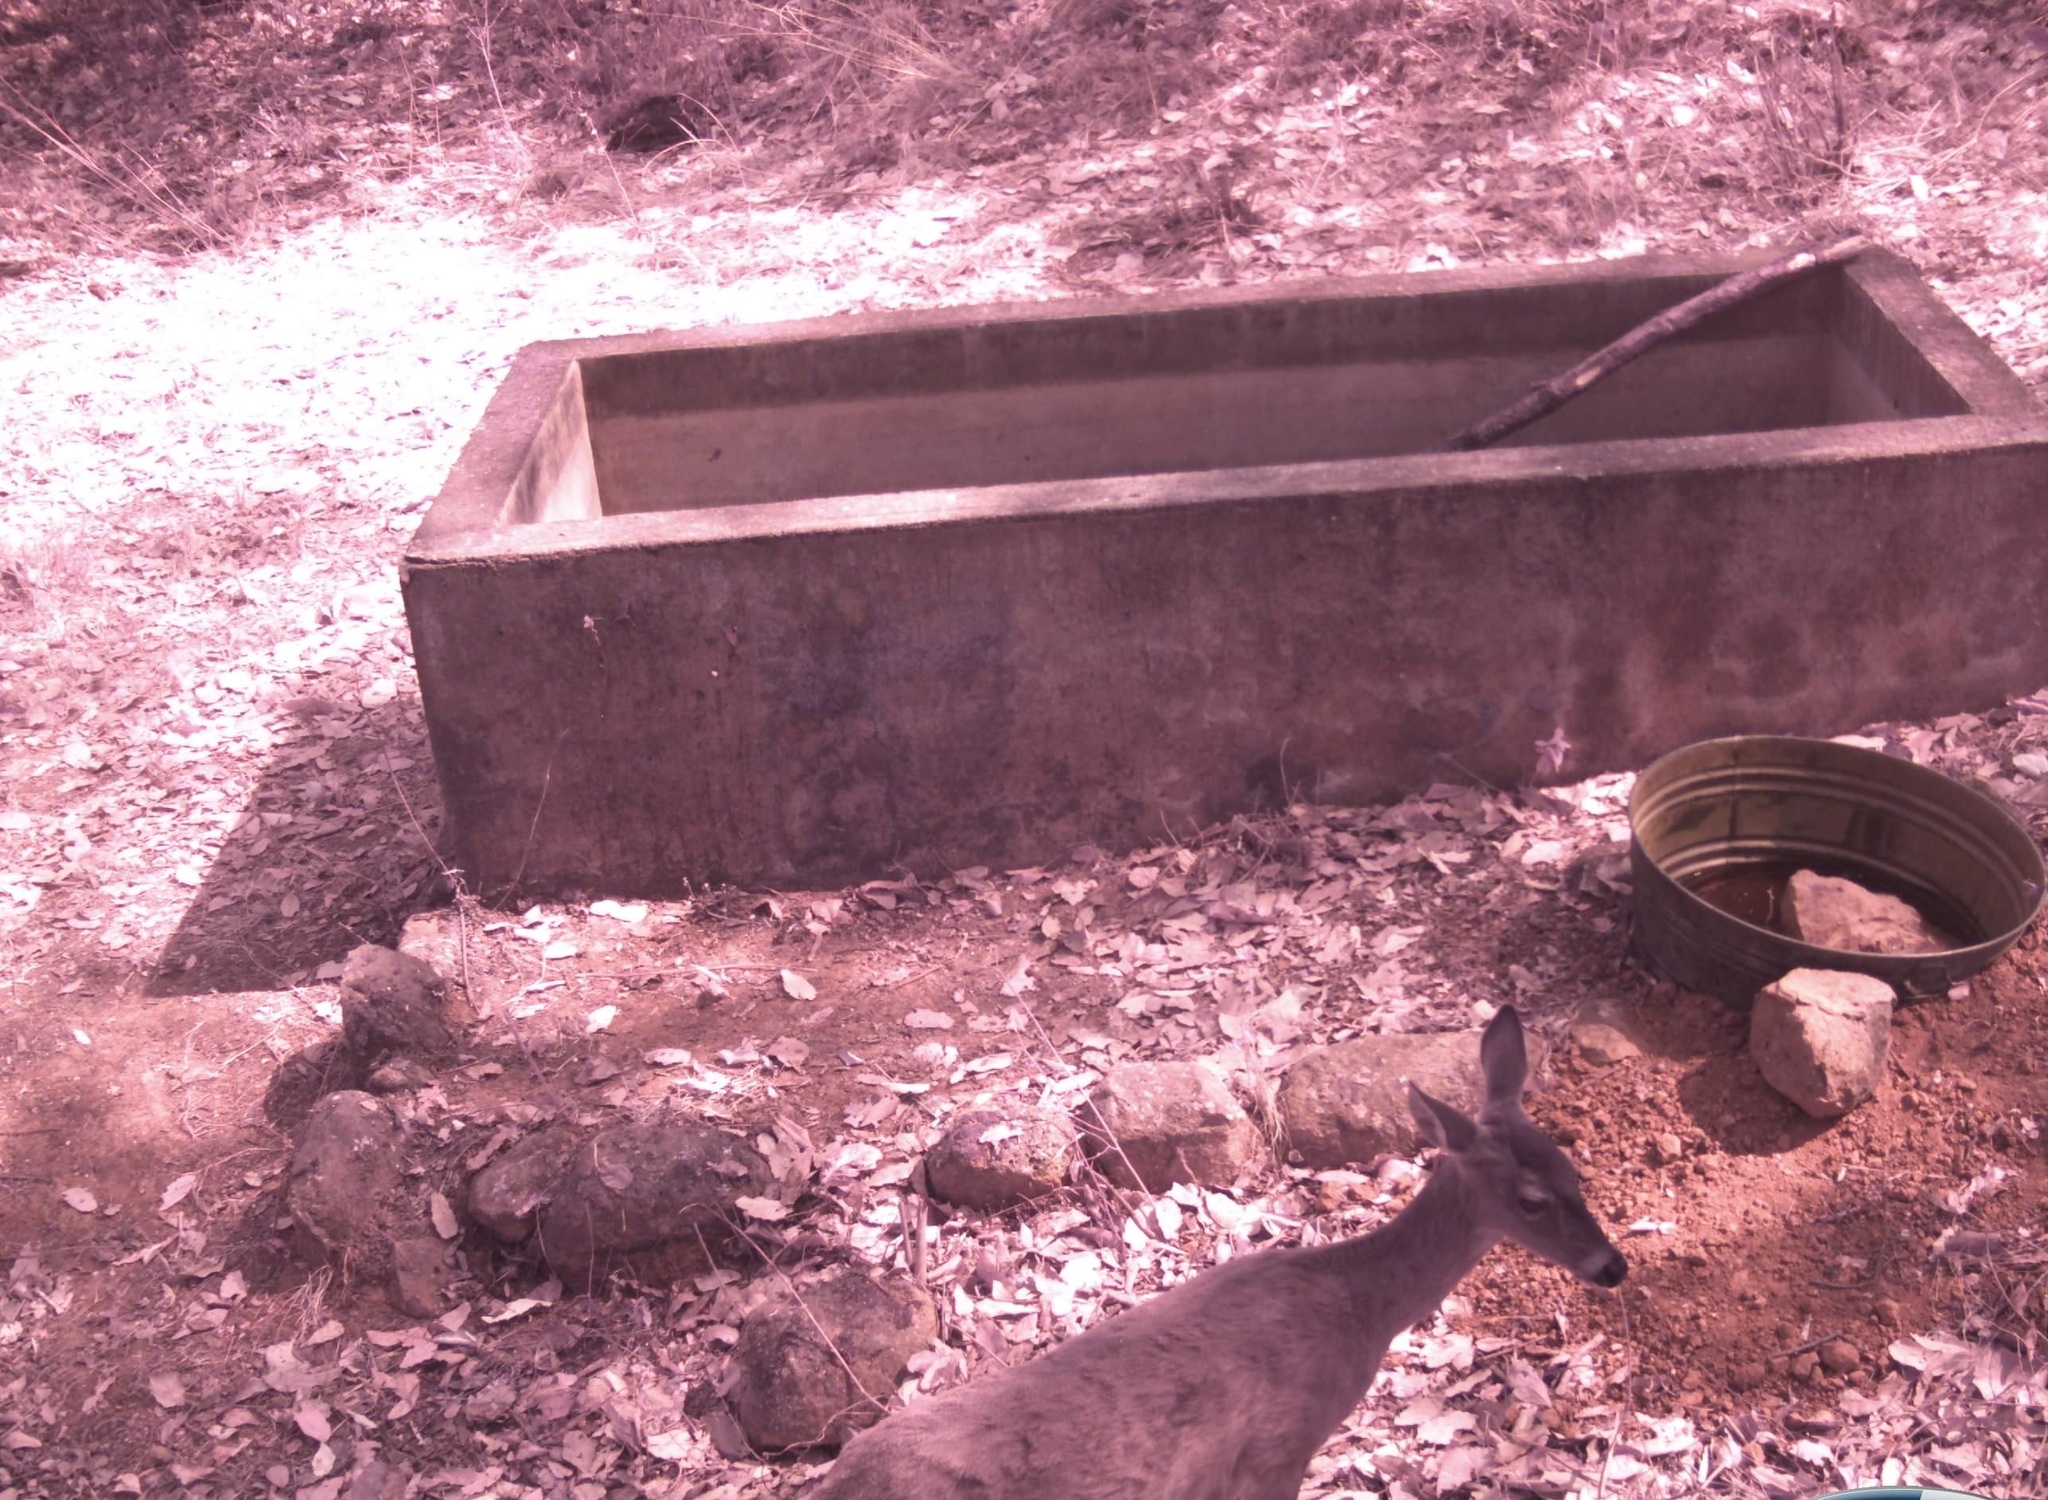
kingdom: Animalia
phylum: Chordata
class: Mammalia
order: Artiodactyla
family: Cervidae
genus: Odocoileus
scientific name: Odocoileus virginianus
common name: White-tailed deer
